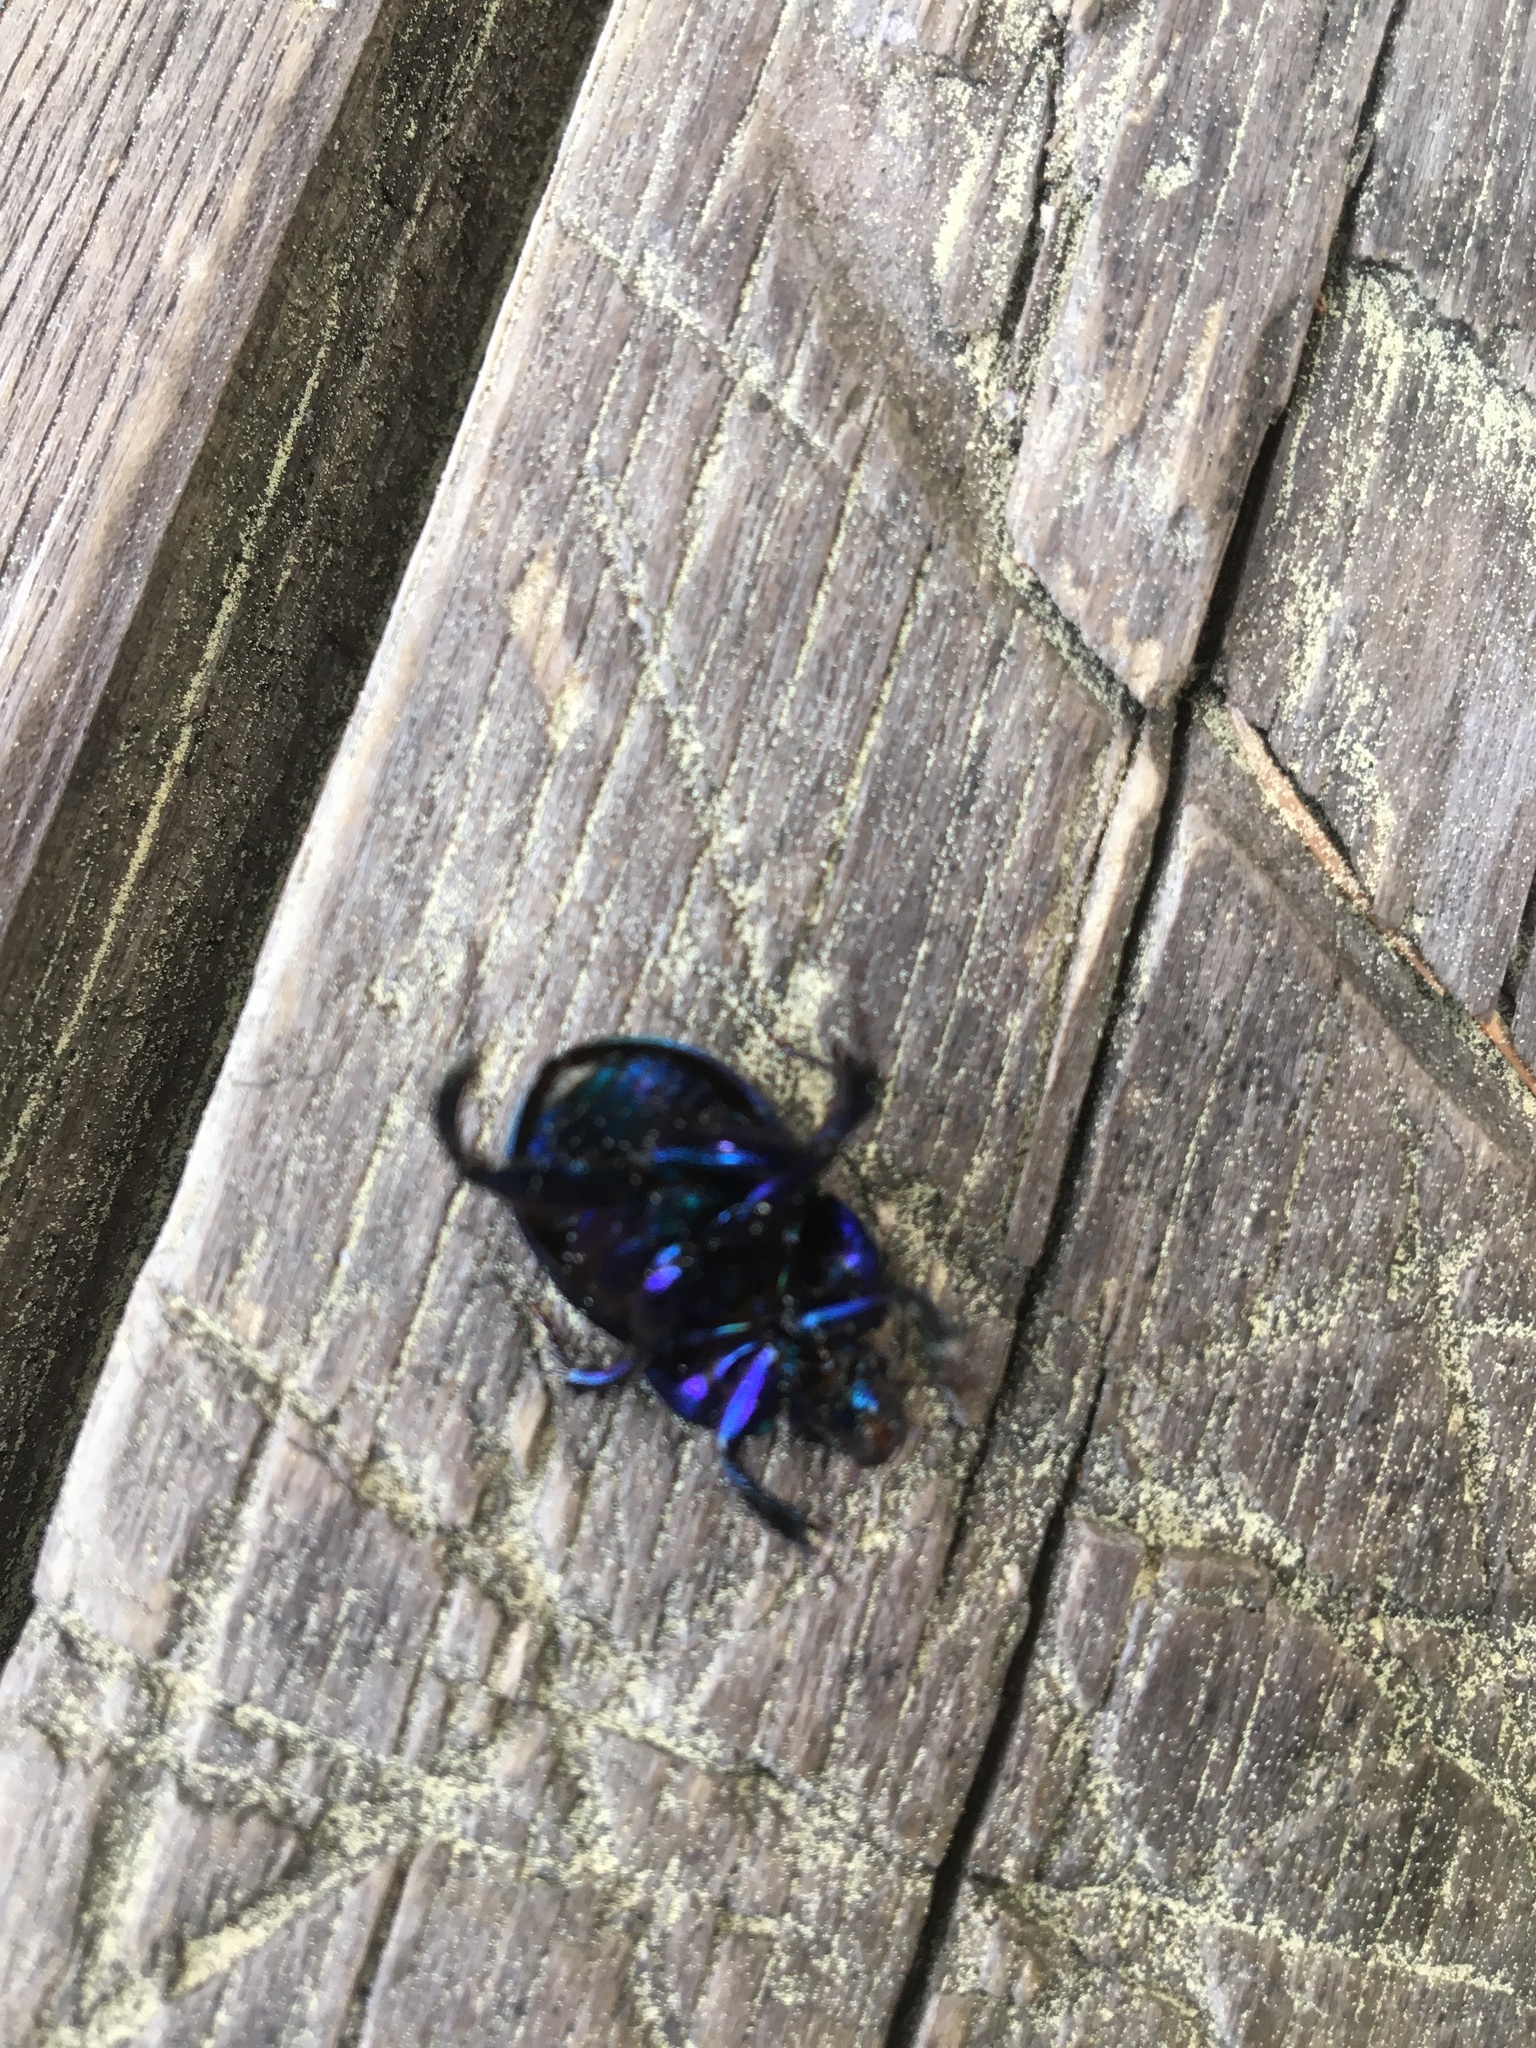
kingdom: Animalia
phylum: Arthropoda
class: Insecta
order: Coleoptera
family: Geotrupidae
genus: Anoplotrupes
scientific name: Anoplotrupes stercorosus
